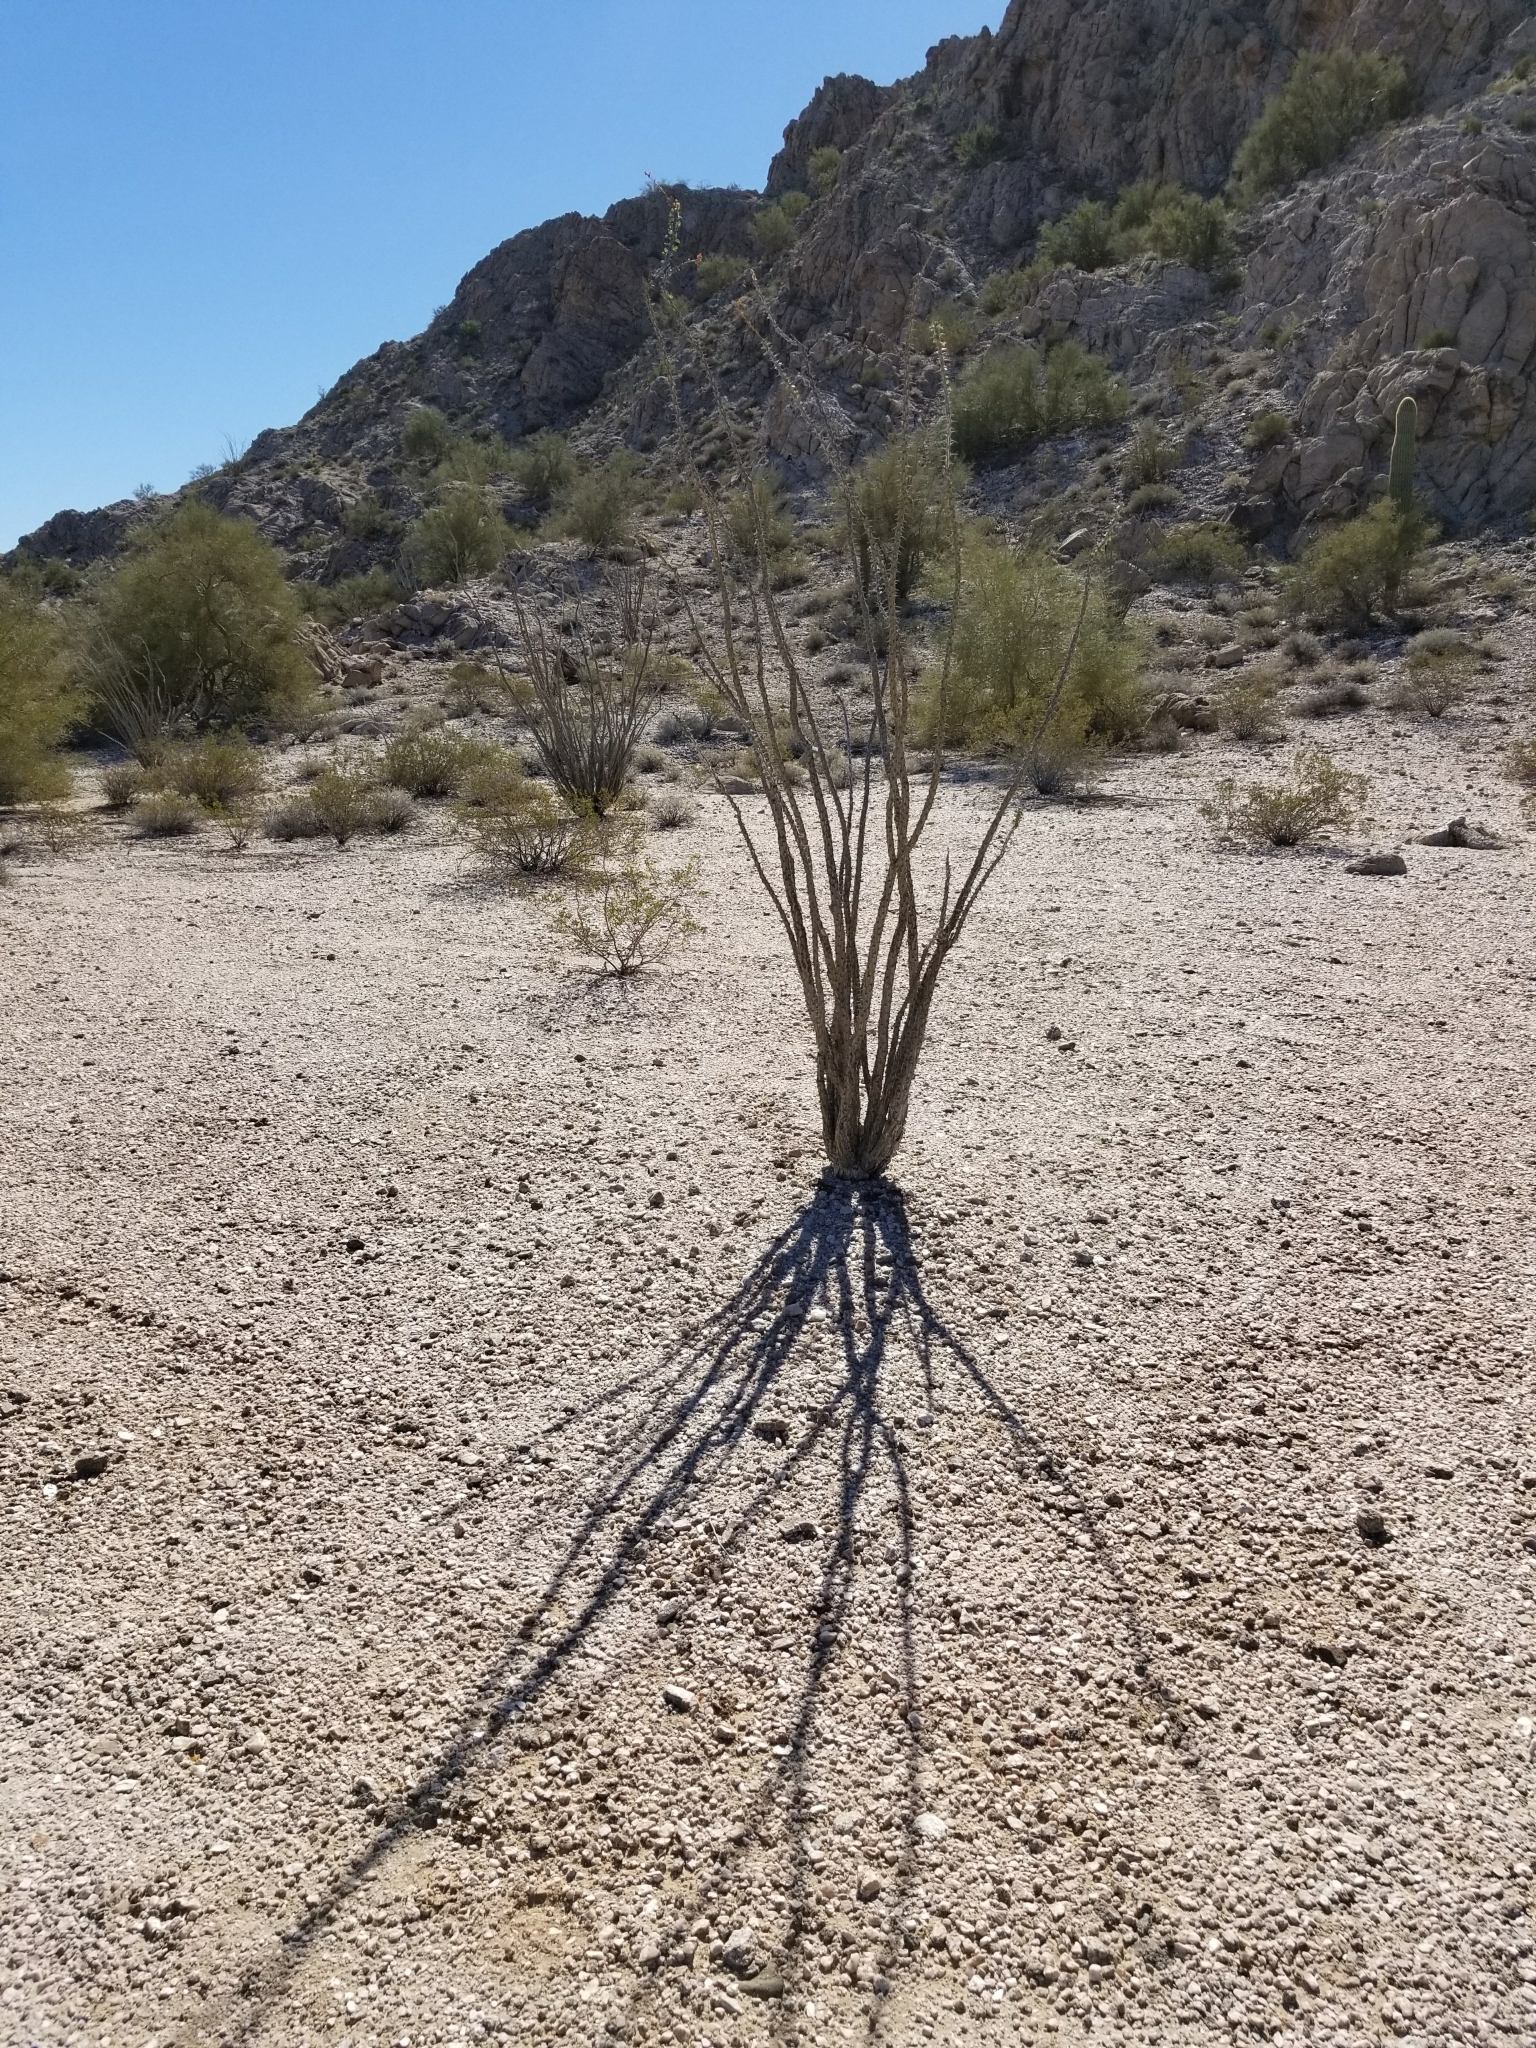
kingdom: Plantae
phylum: Tracheophyta
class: Magnoliopsida
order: Ericales
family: Fouquieriaceae
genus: Fouquieria
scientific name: Fouquieria splendens
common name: Vine-cactus
